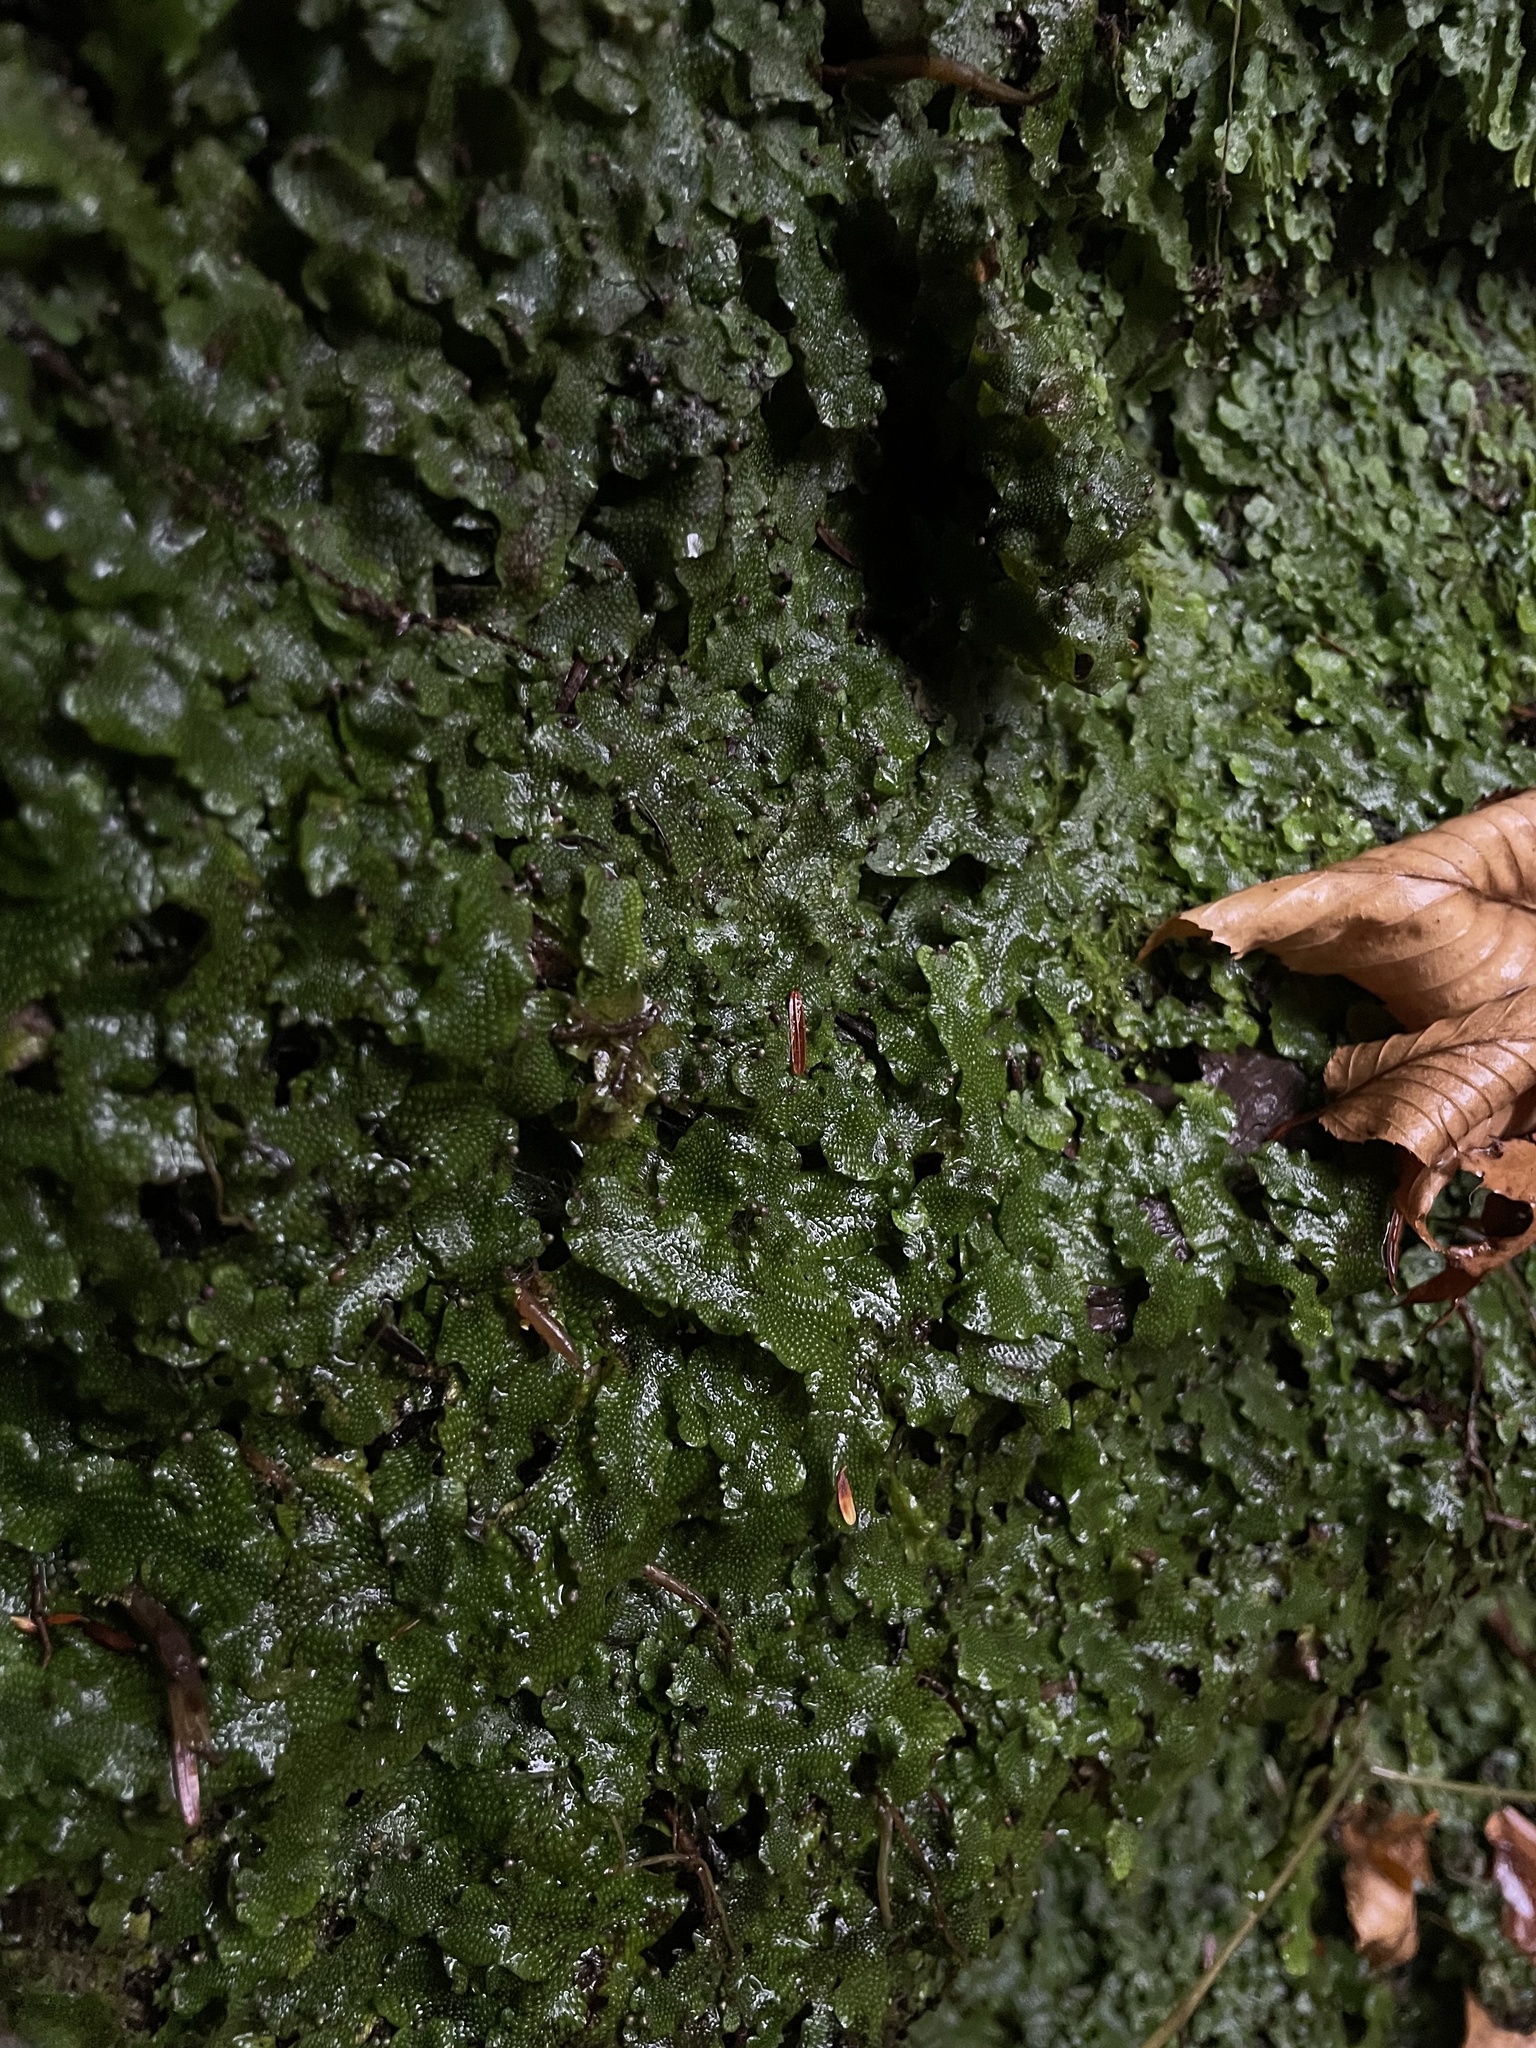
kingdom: Plantae
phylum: Marchantiophyta
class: Marchantiopsida
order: Marchantiales
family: Conocephalaceae
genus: Conocephalum
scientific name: Conocephalum salebrosum
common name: Cat-tongue liverwort
